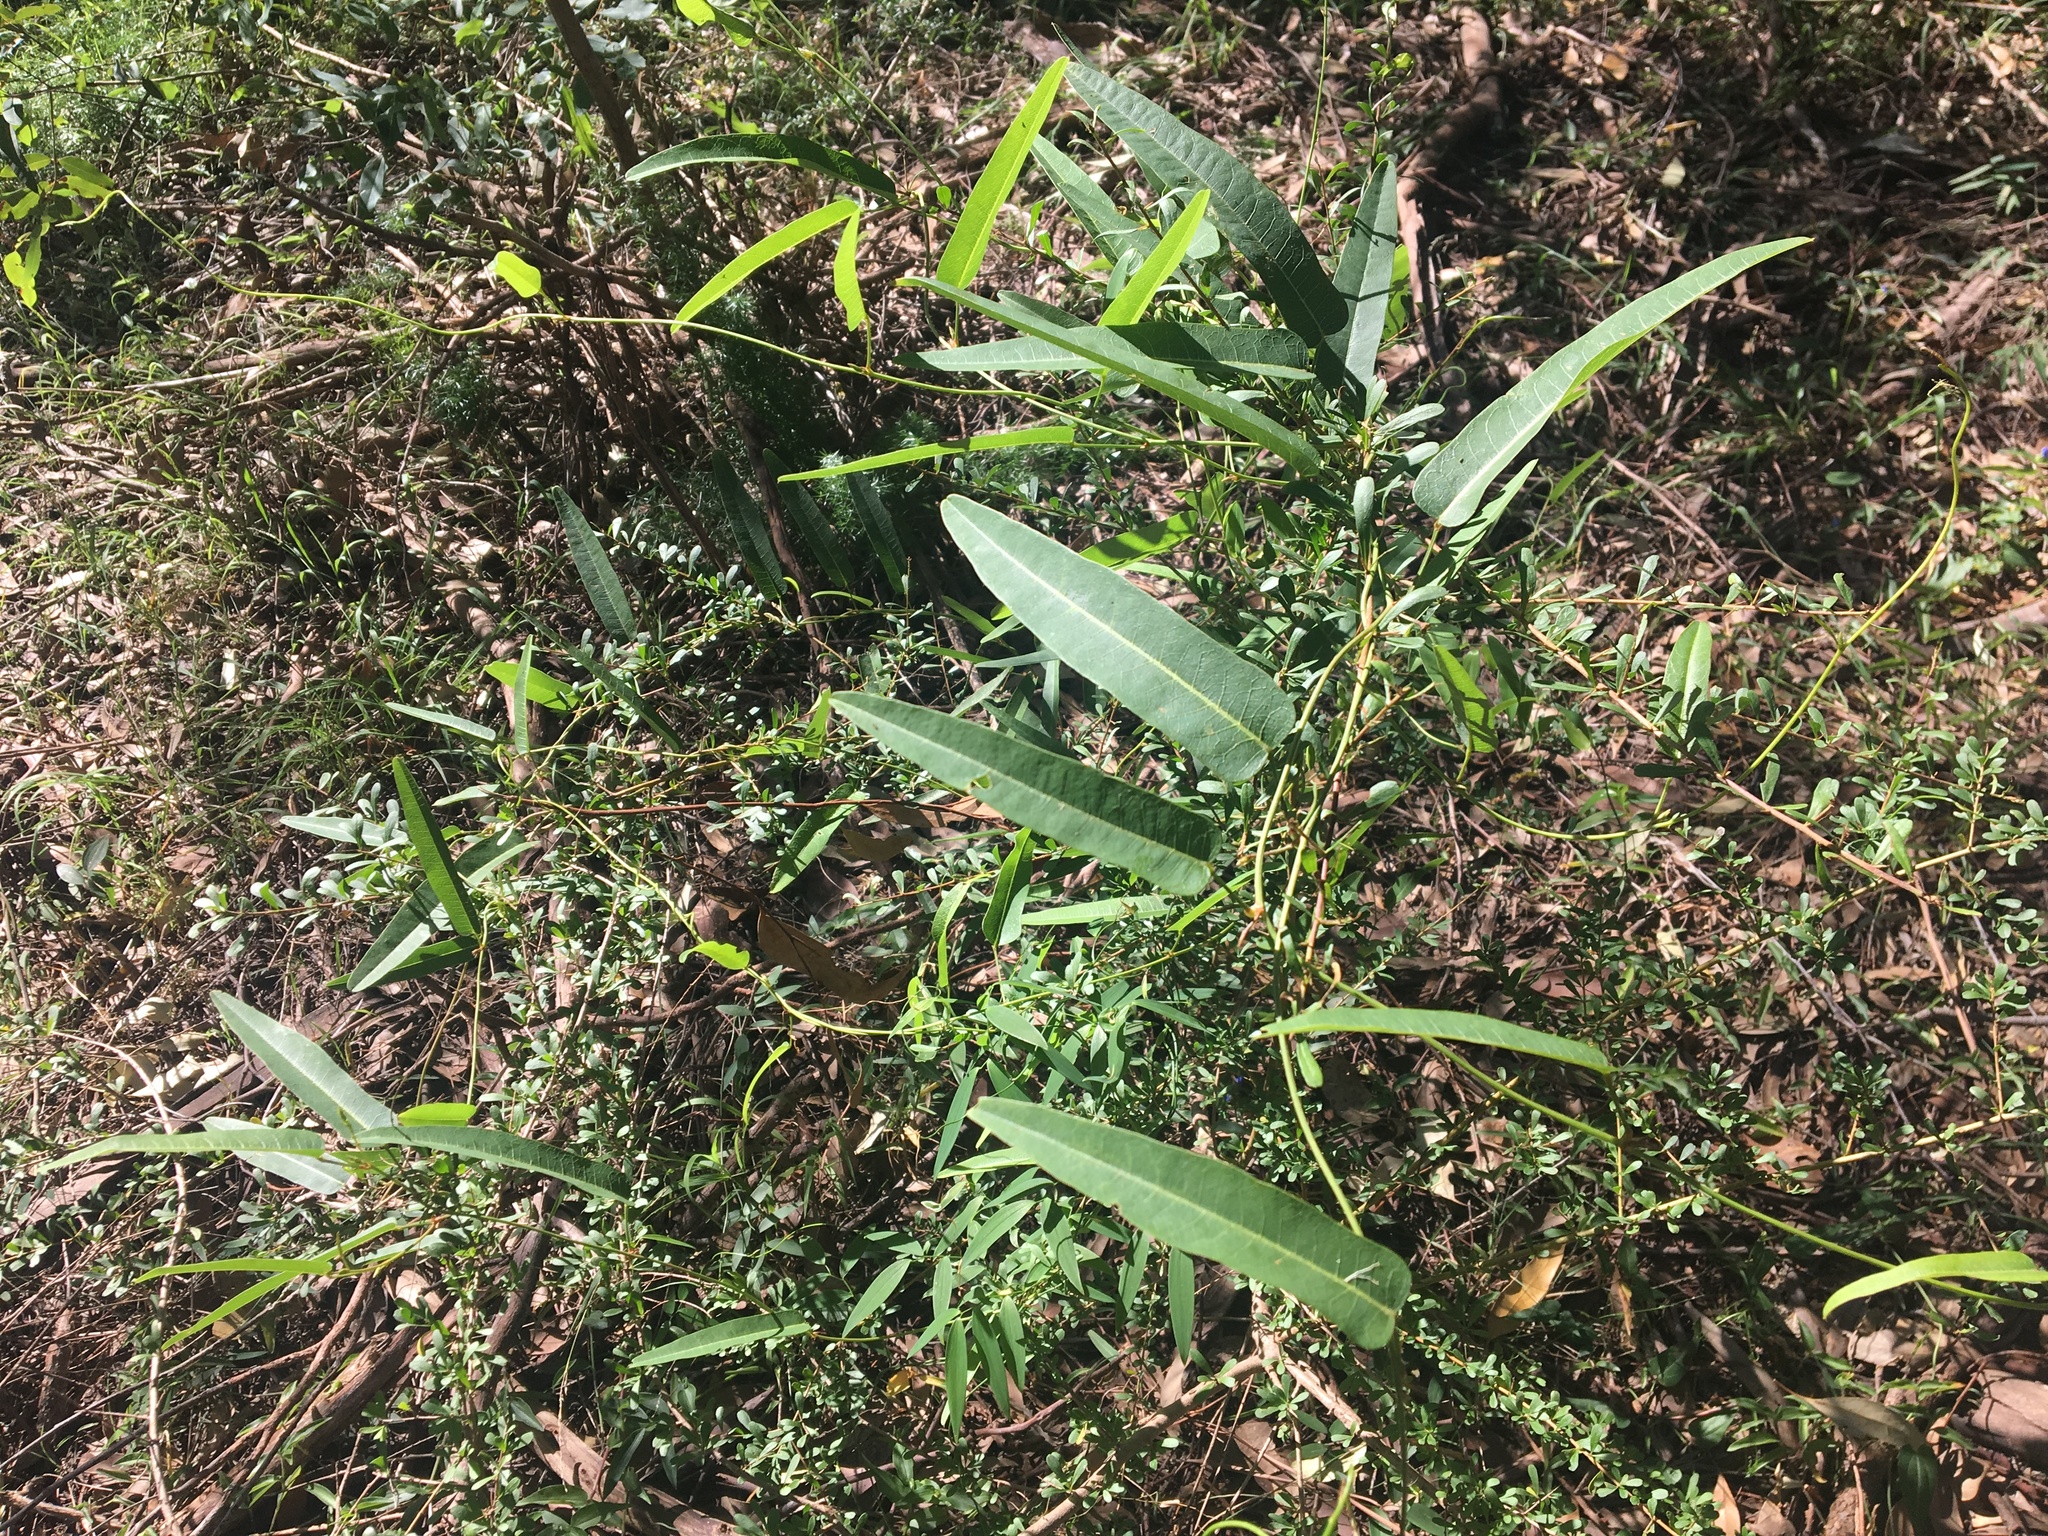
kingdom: Plantae
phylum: Tracheophyta
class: Magnoliopsida
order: Fabales
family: Fabaceae
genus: Hardenbergia
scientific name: Hardenbergia violacea
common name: Coral-pea
